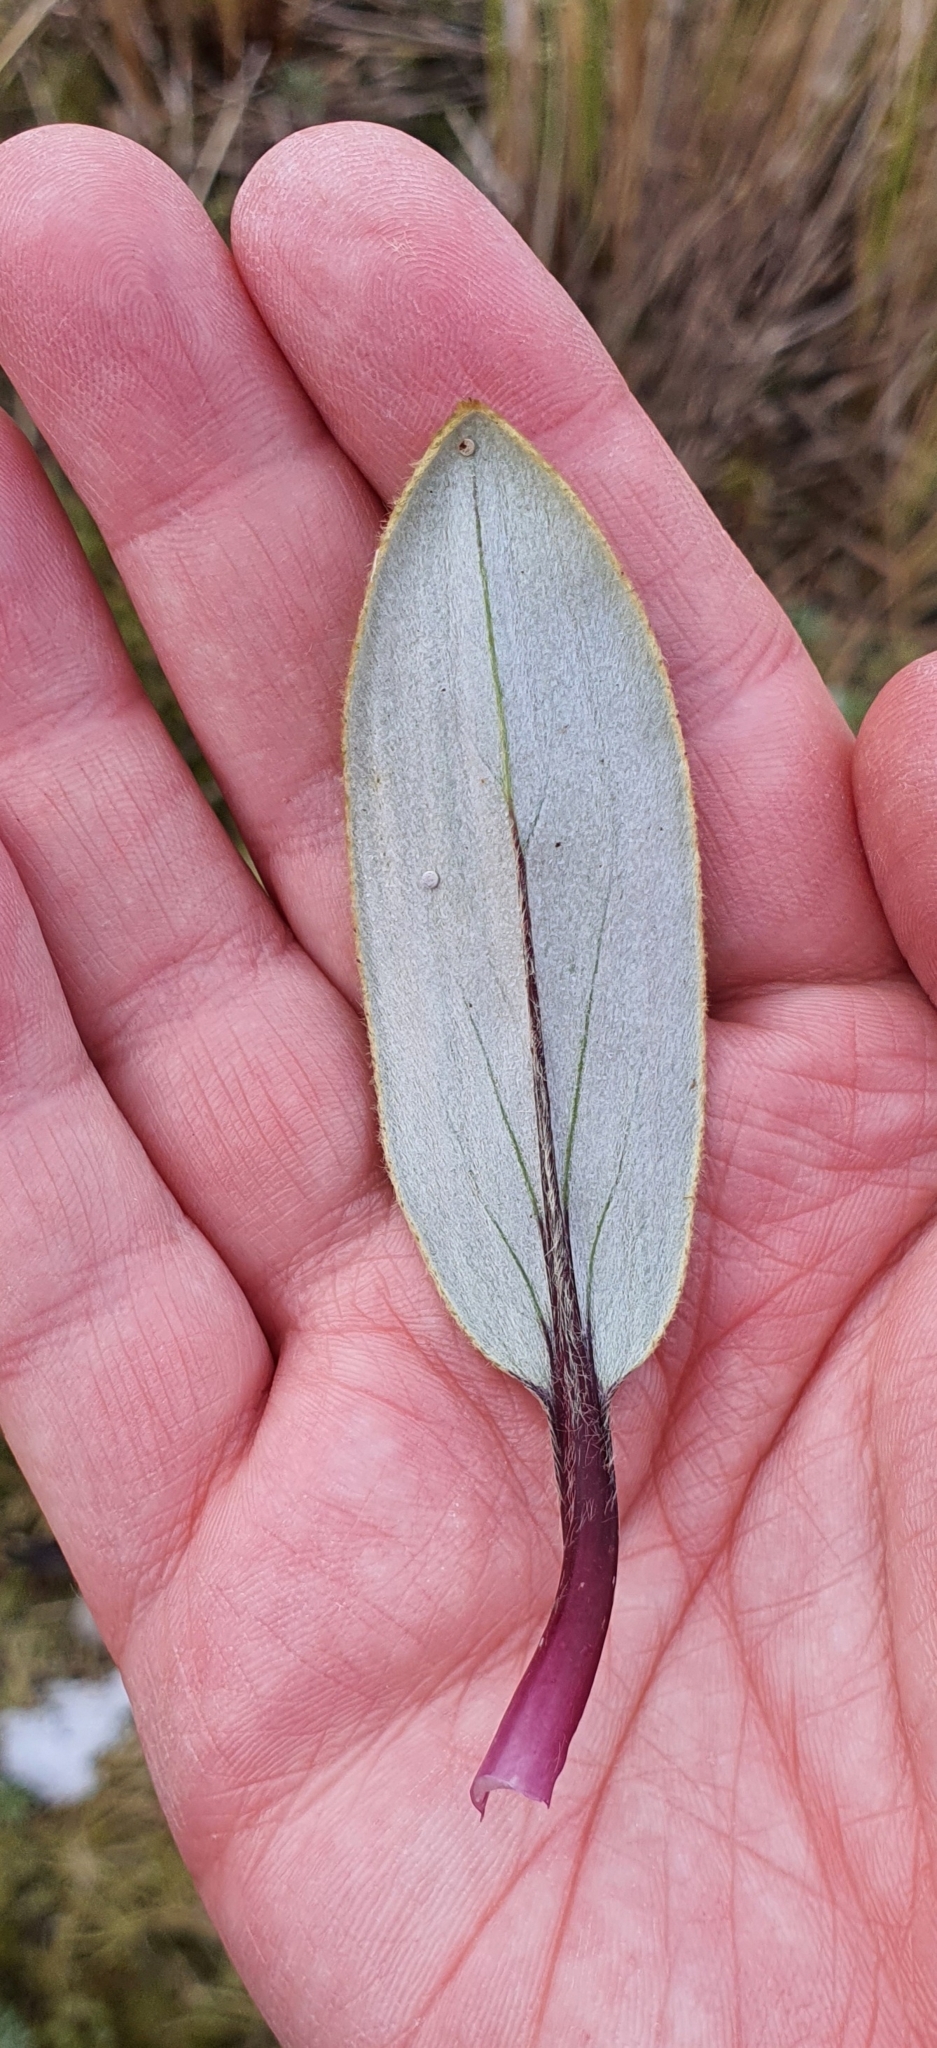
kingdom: Plantae
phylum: Tracheophyta
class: Magnoliopsida
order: Asterales
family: Asteraceae
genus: Celmisia
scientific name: Celmisia verbascifolia
